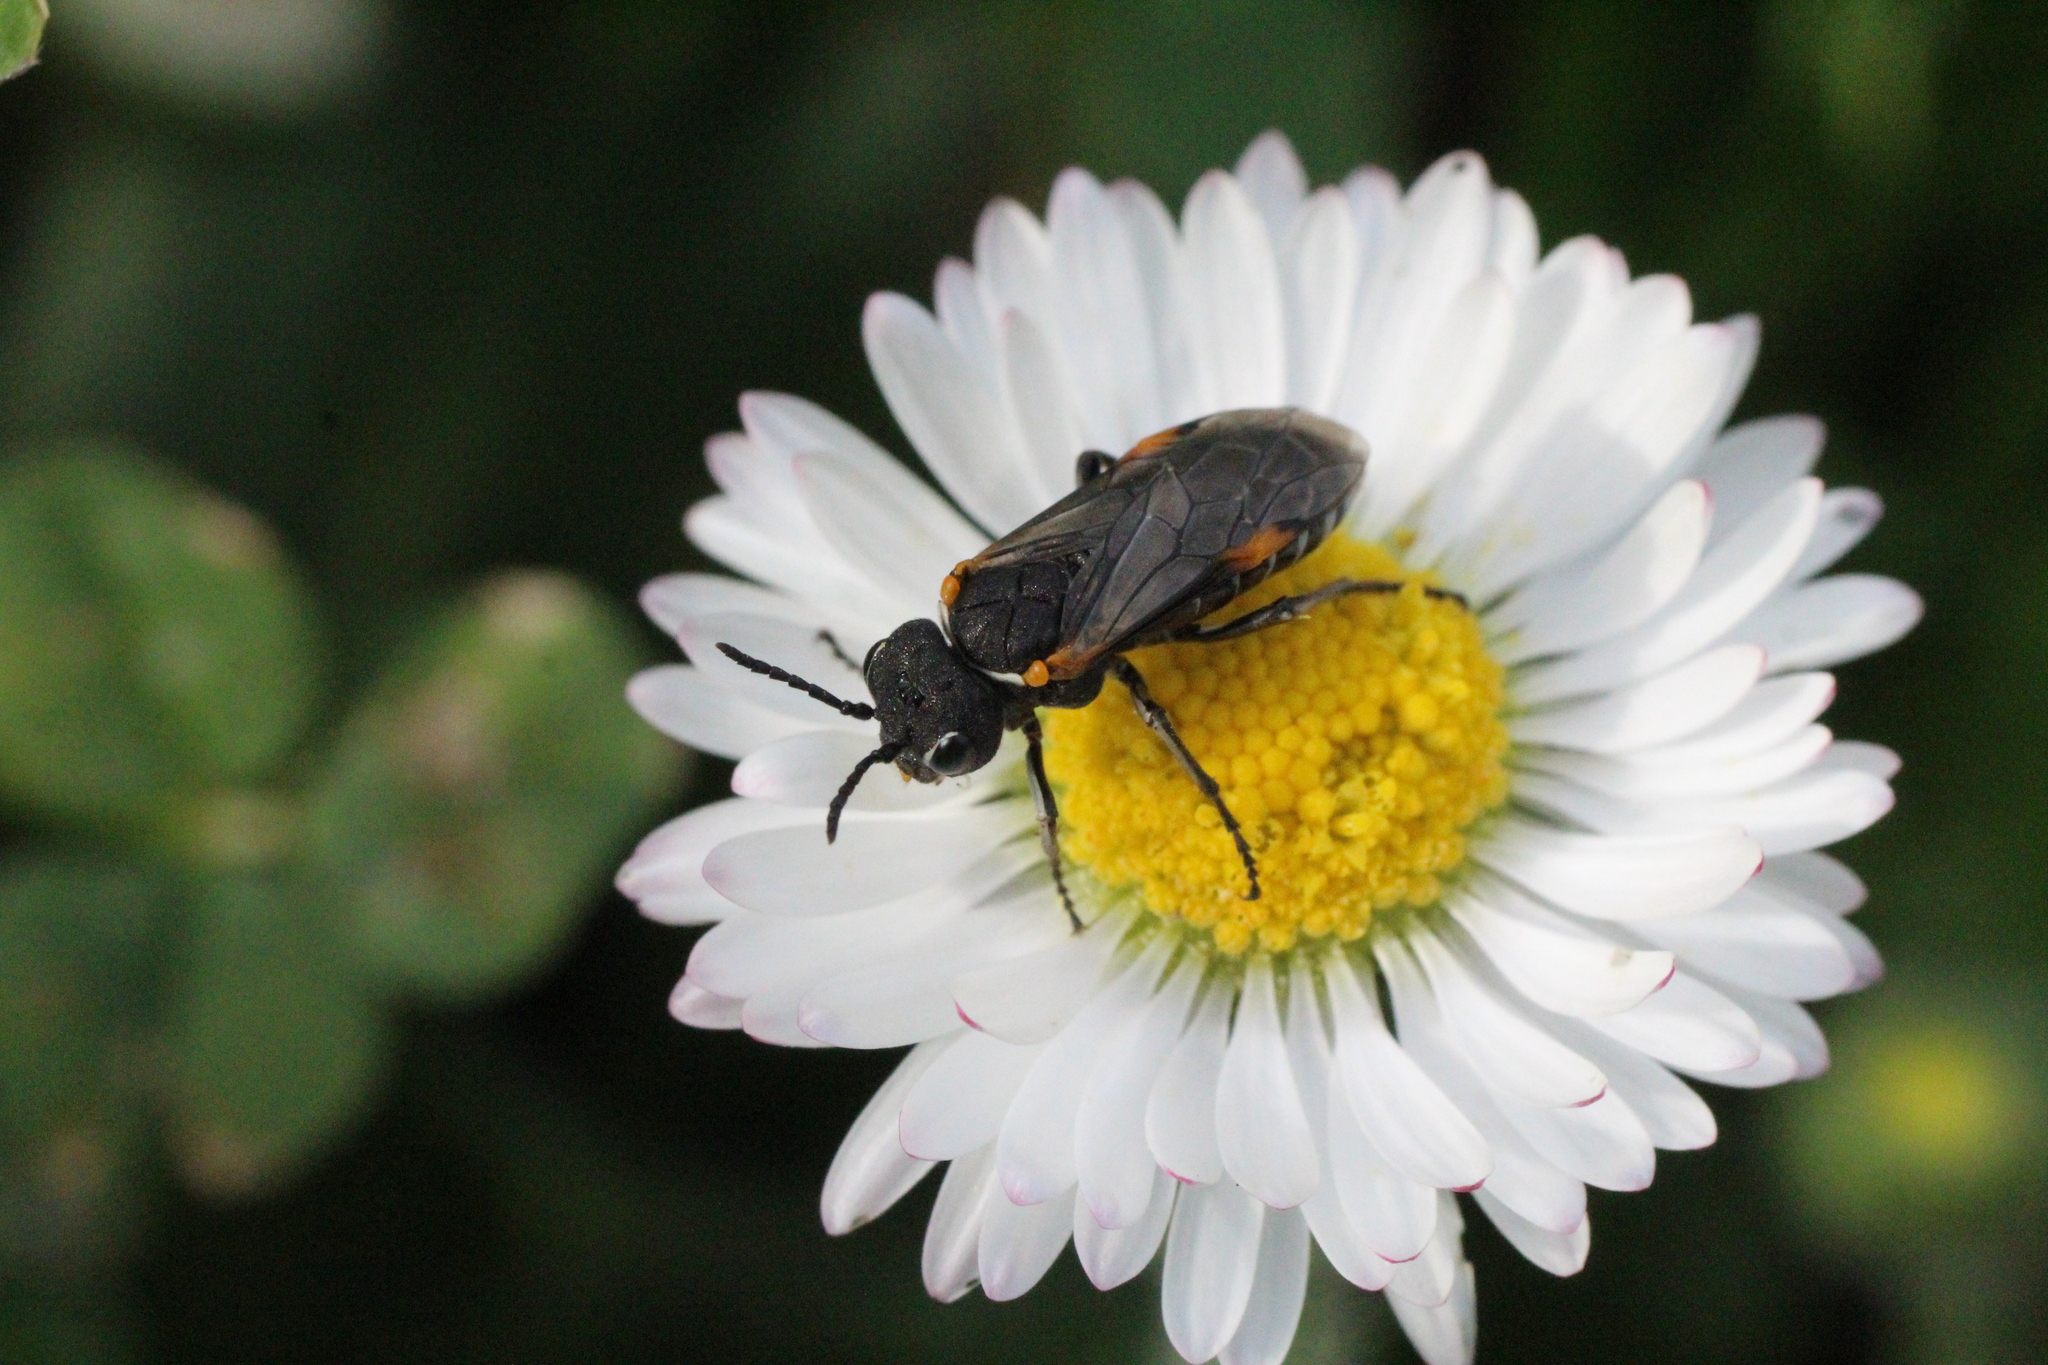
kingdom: Animalia
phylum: Arthropoda
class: Insecta
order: Hymenoptera
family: Tenthredinidae
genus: Sciapteryx
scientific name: Sciapteryx costalis
